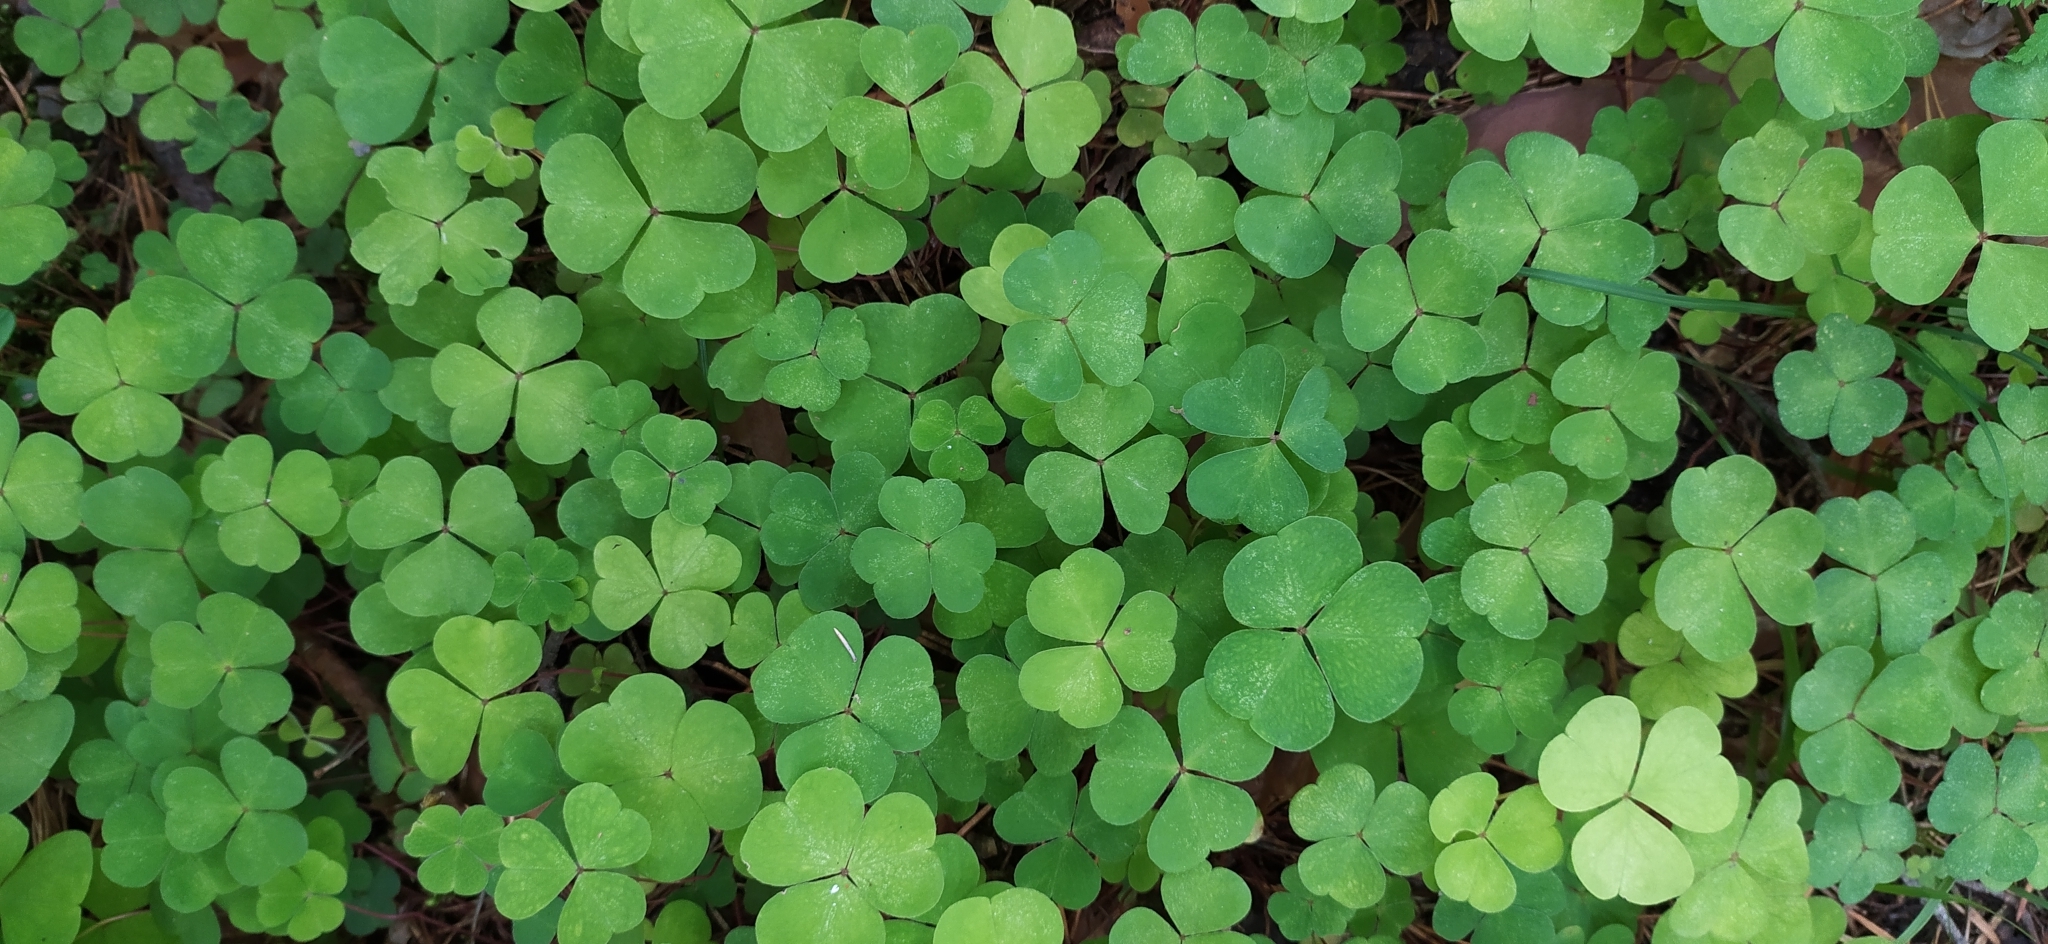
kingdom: Plantae
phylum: Tracheophyta
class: Magnoliopsida
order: Oxalidales
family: Oxalidaceae
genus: Oxalis
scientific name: Oxalis acetosella
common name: Wood-sorrel
